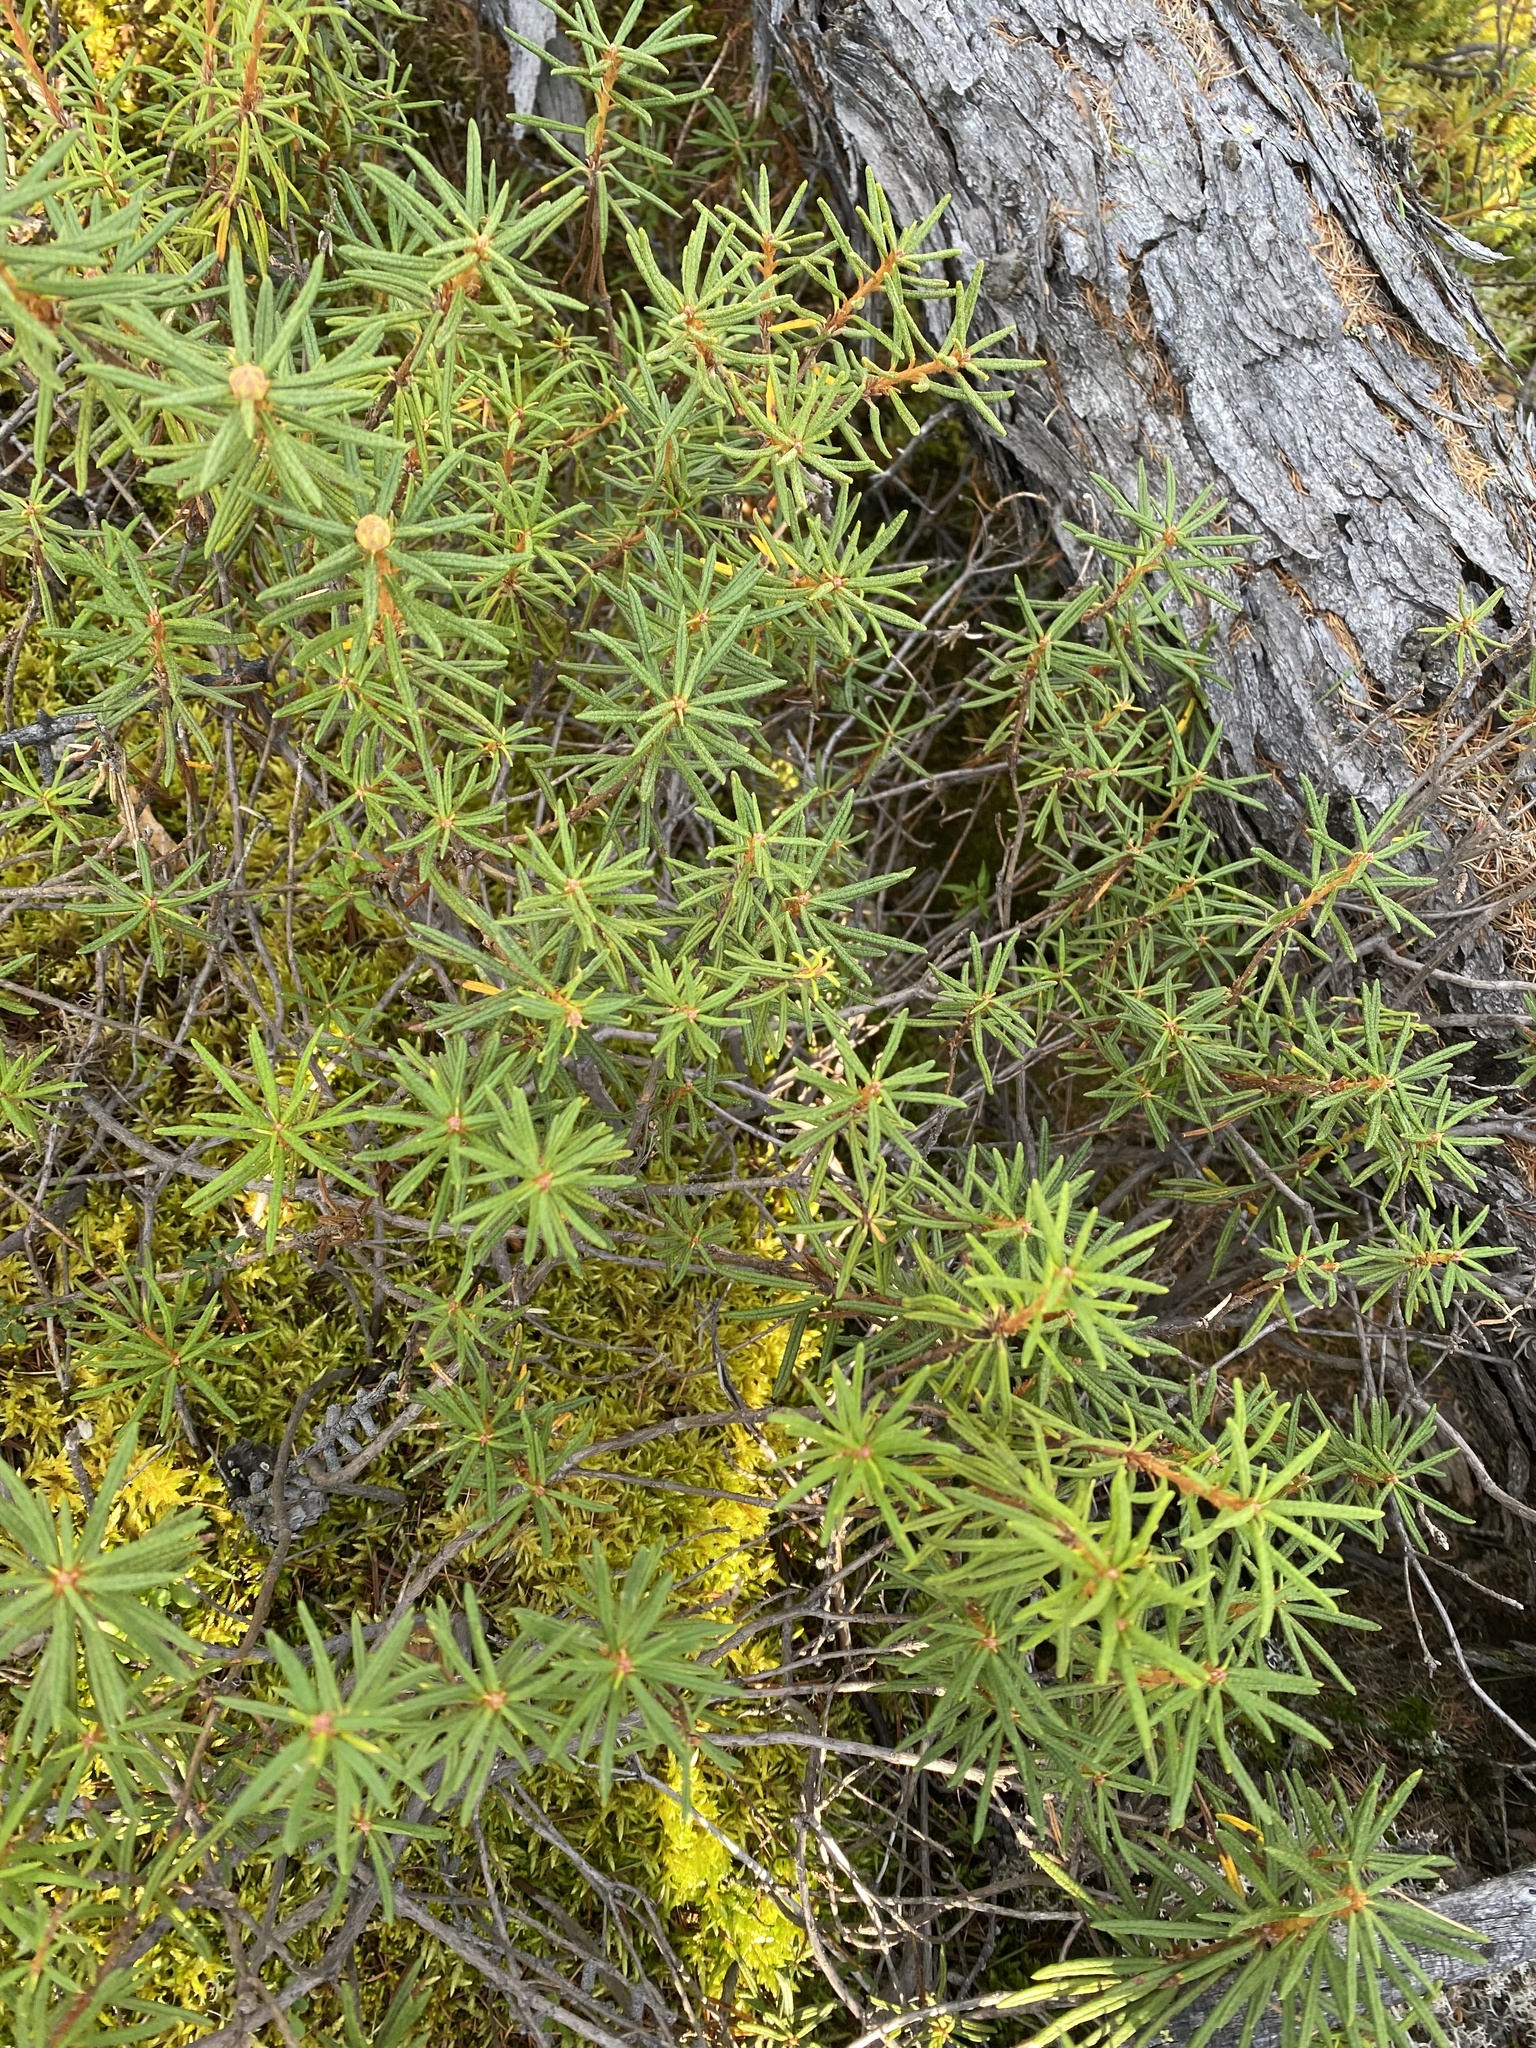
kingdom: Plantae
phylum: Tracheophyta
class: Magnoliopsida
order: Ericales
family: Ericaceae
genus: Rhododendron
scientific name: Rhododendron tomentosum
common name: Marsh labrador tea
